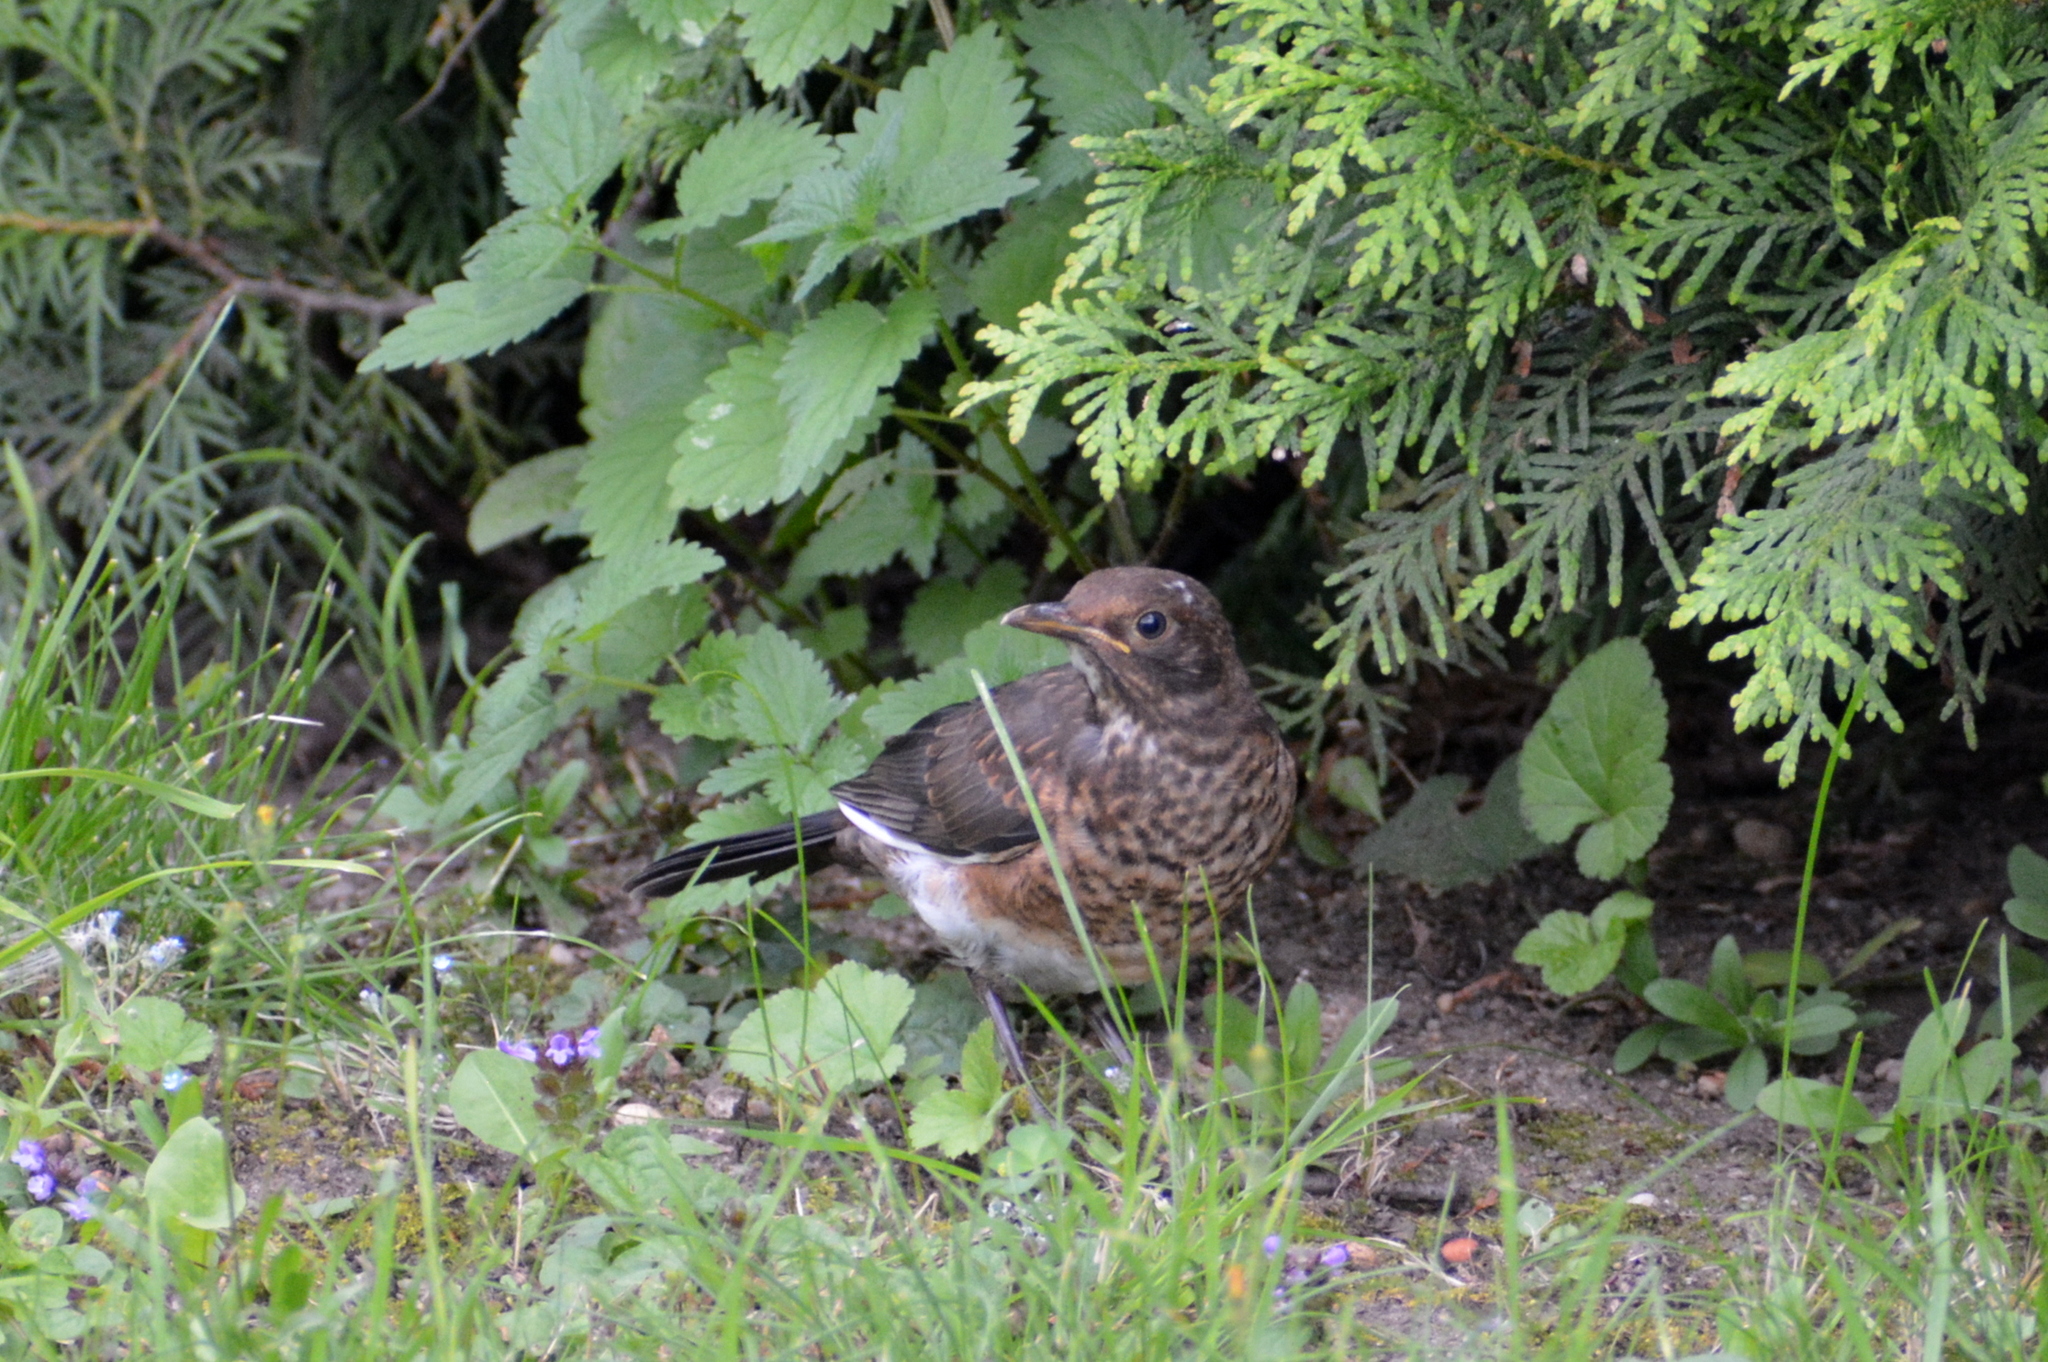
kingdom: Animalia
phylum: Chordata
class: Aves
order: Passeriformes
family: Turdidae
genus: Turdus
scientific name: Turdus merula
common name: Common blackbird
